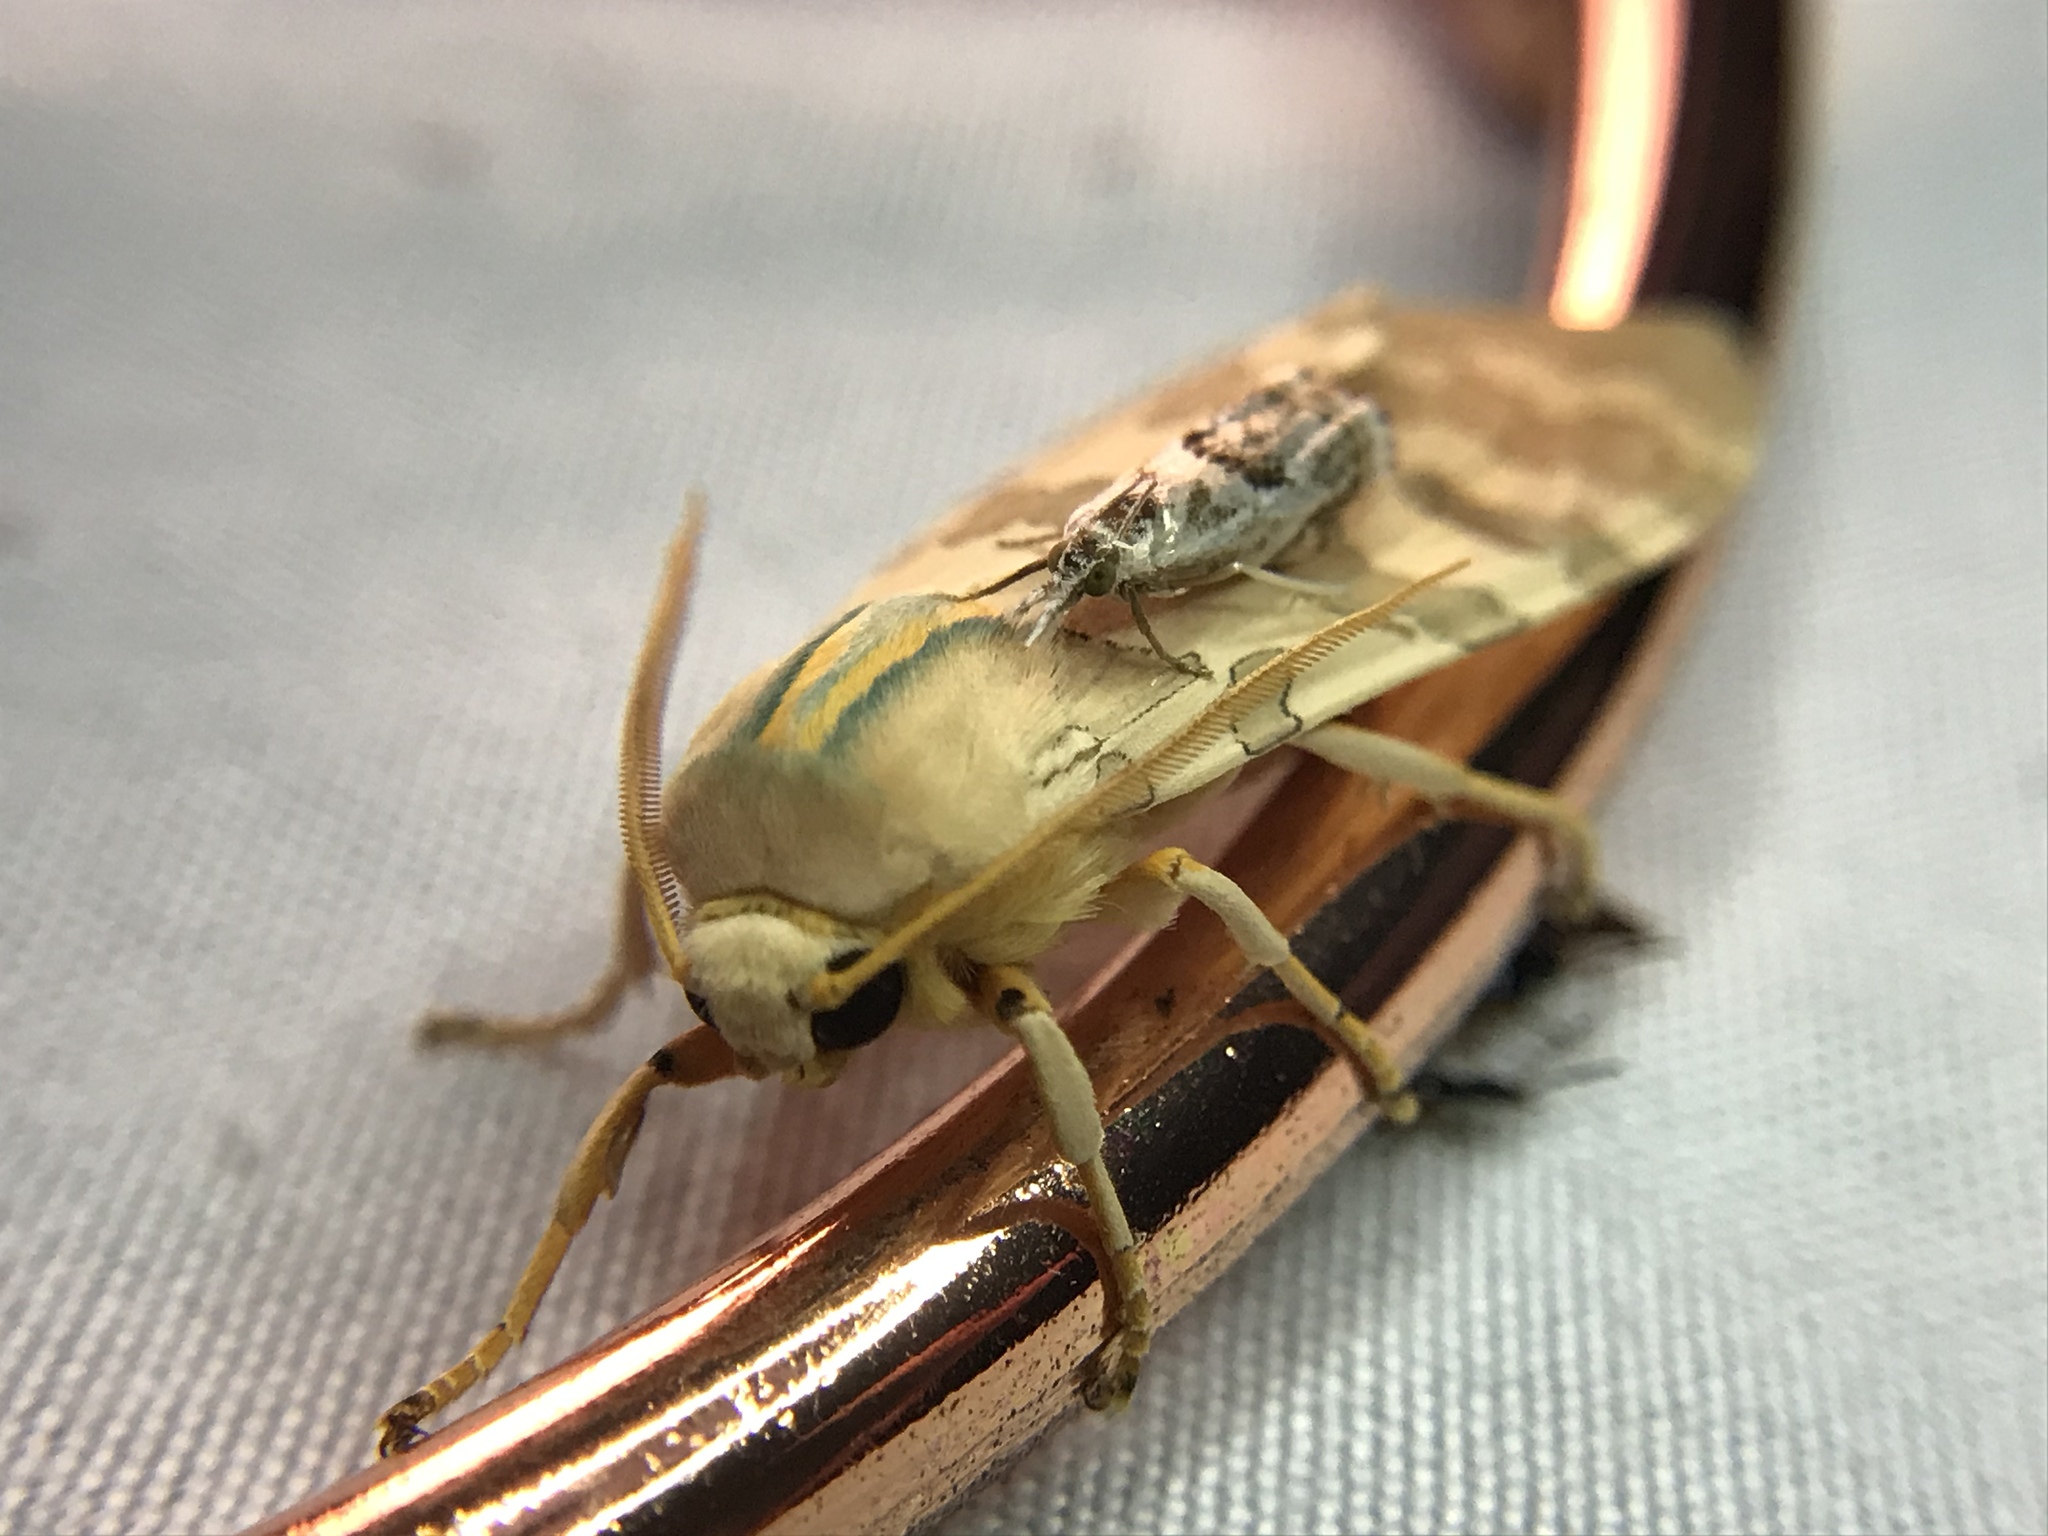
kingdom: Animalia
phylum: Arthropoda
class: Insecta
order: Lepidoptera
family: Erebidae
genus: Halysidota
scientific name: Halysidota
